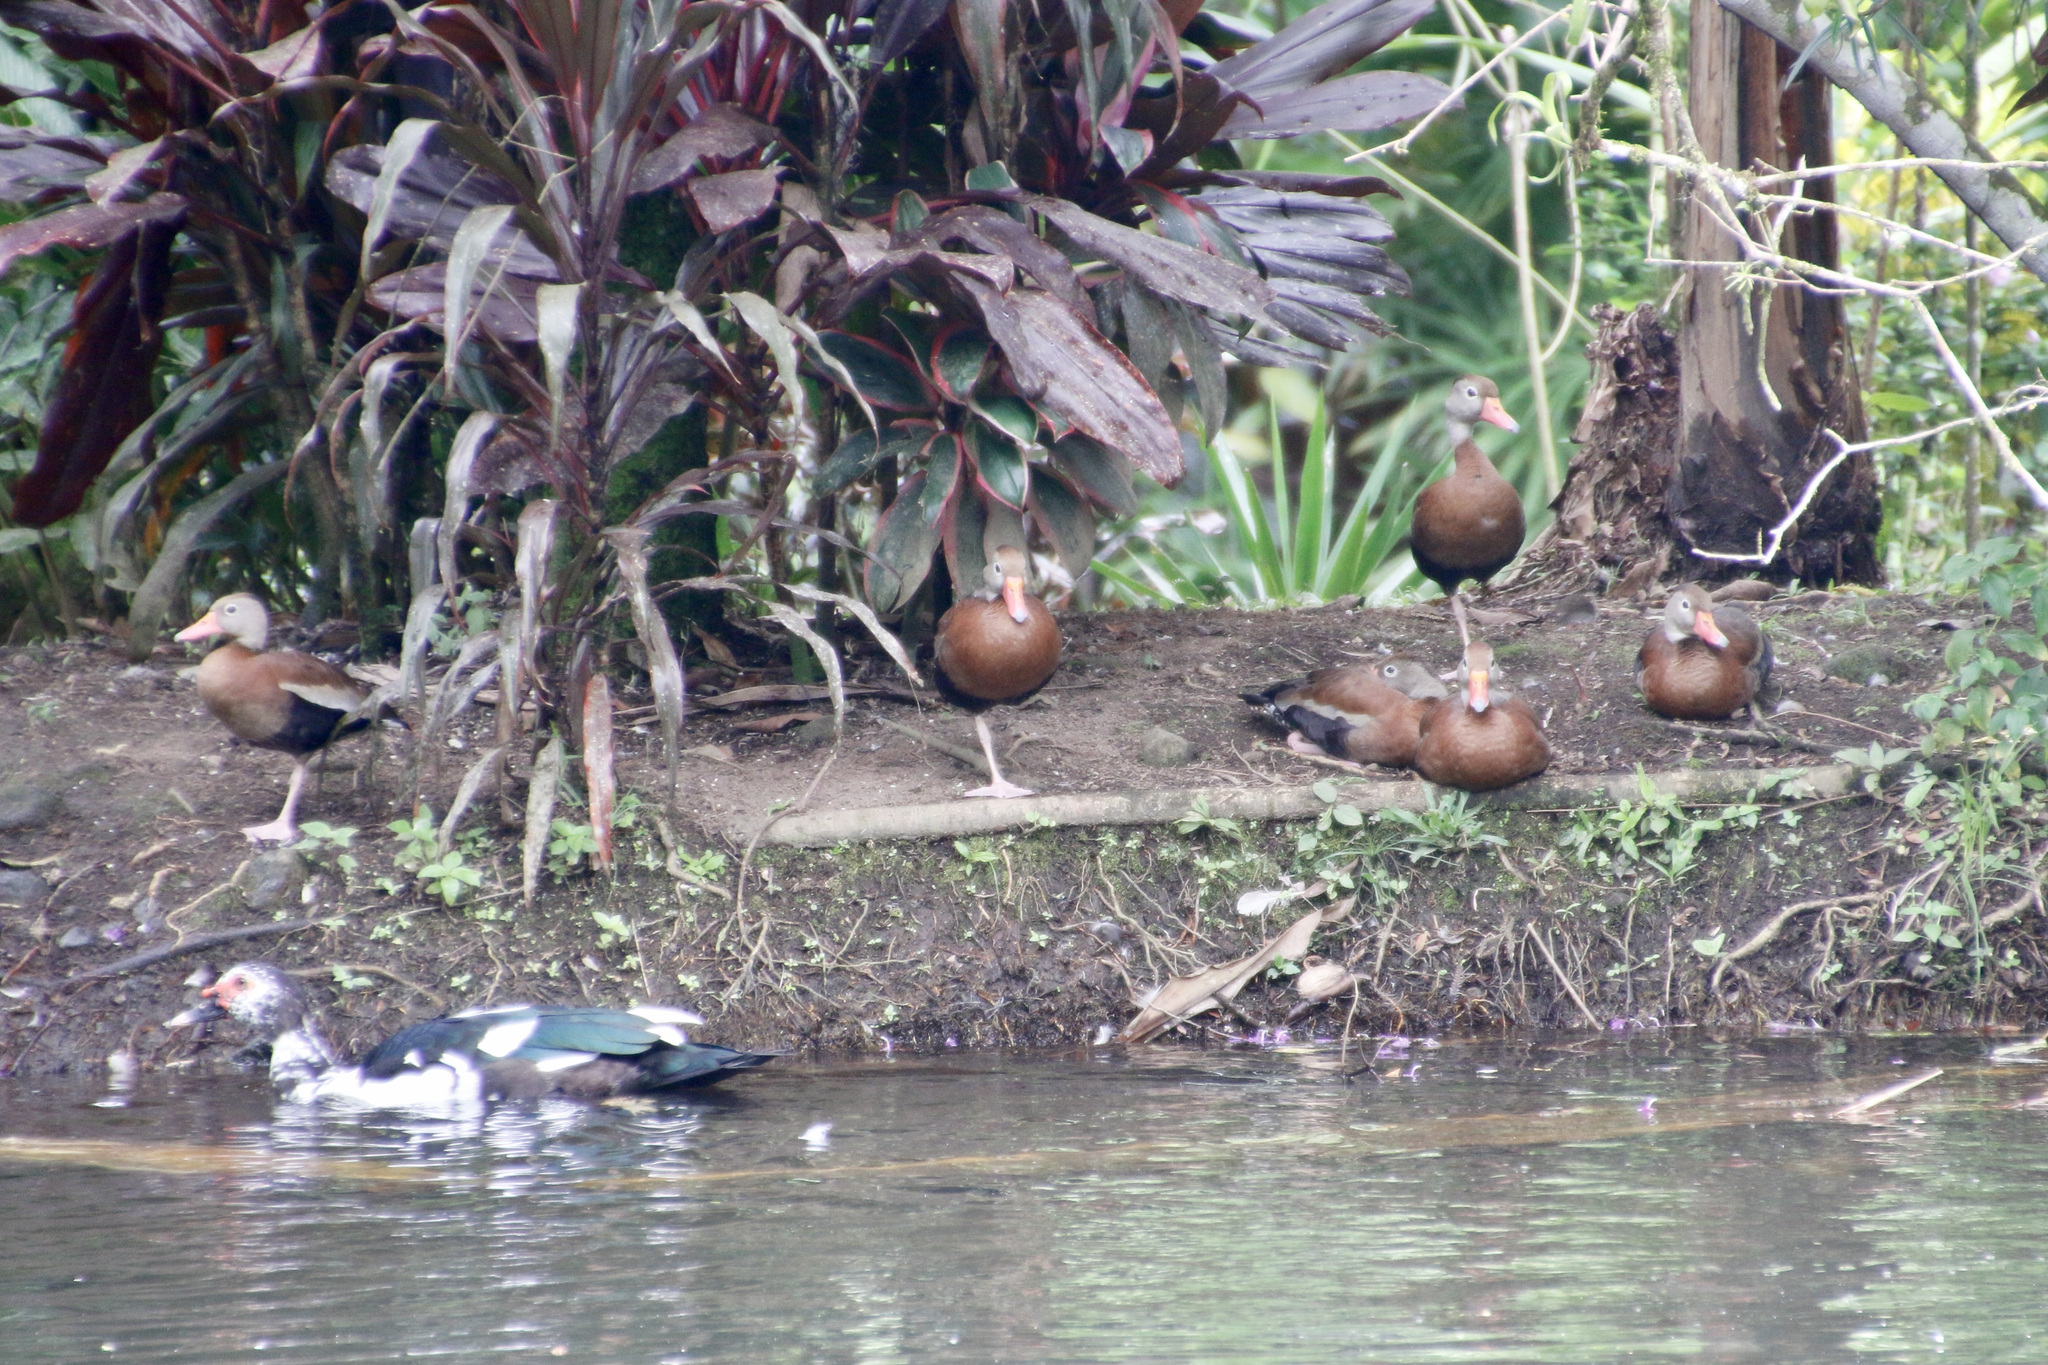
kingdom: Animalia
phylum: Chordata
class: Aves
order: Anseriformes
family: Anatidae
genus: Dendrocygna
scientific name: Dendrocygna autumnalis
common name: Black-bellied whistling duck
